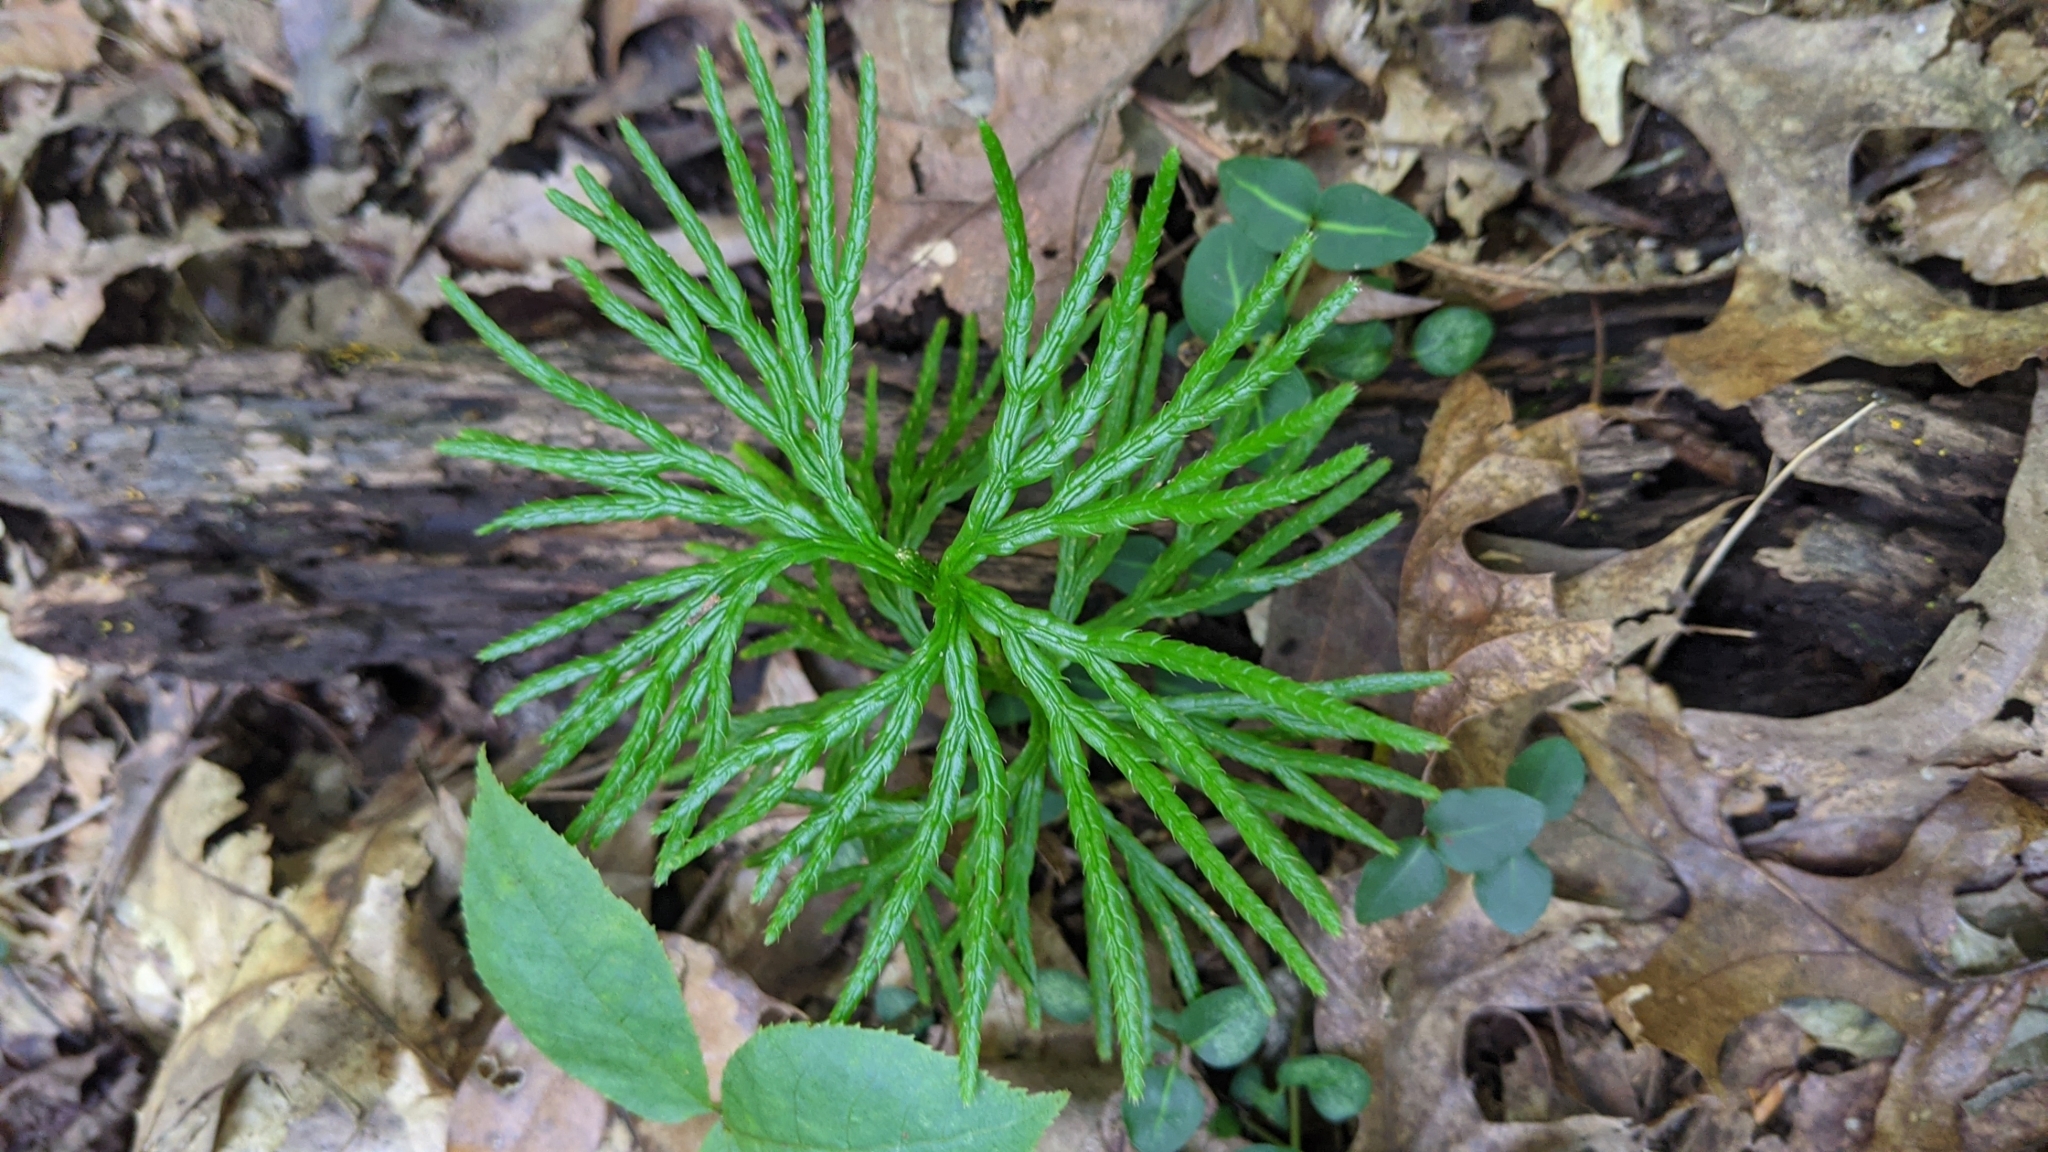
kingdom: Plantae
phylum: Tracheophyta
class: Lycopodiopsida
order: Lycopodiales
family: Lycopodiaceae
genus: Diphasiastrum
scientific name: Diphasiastrum digitatum
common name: Southern running-pine
